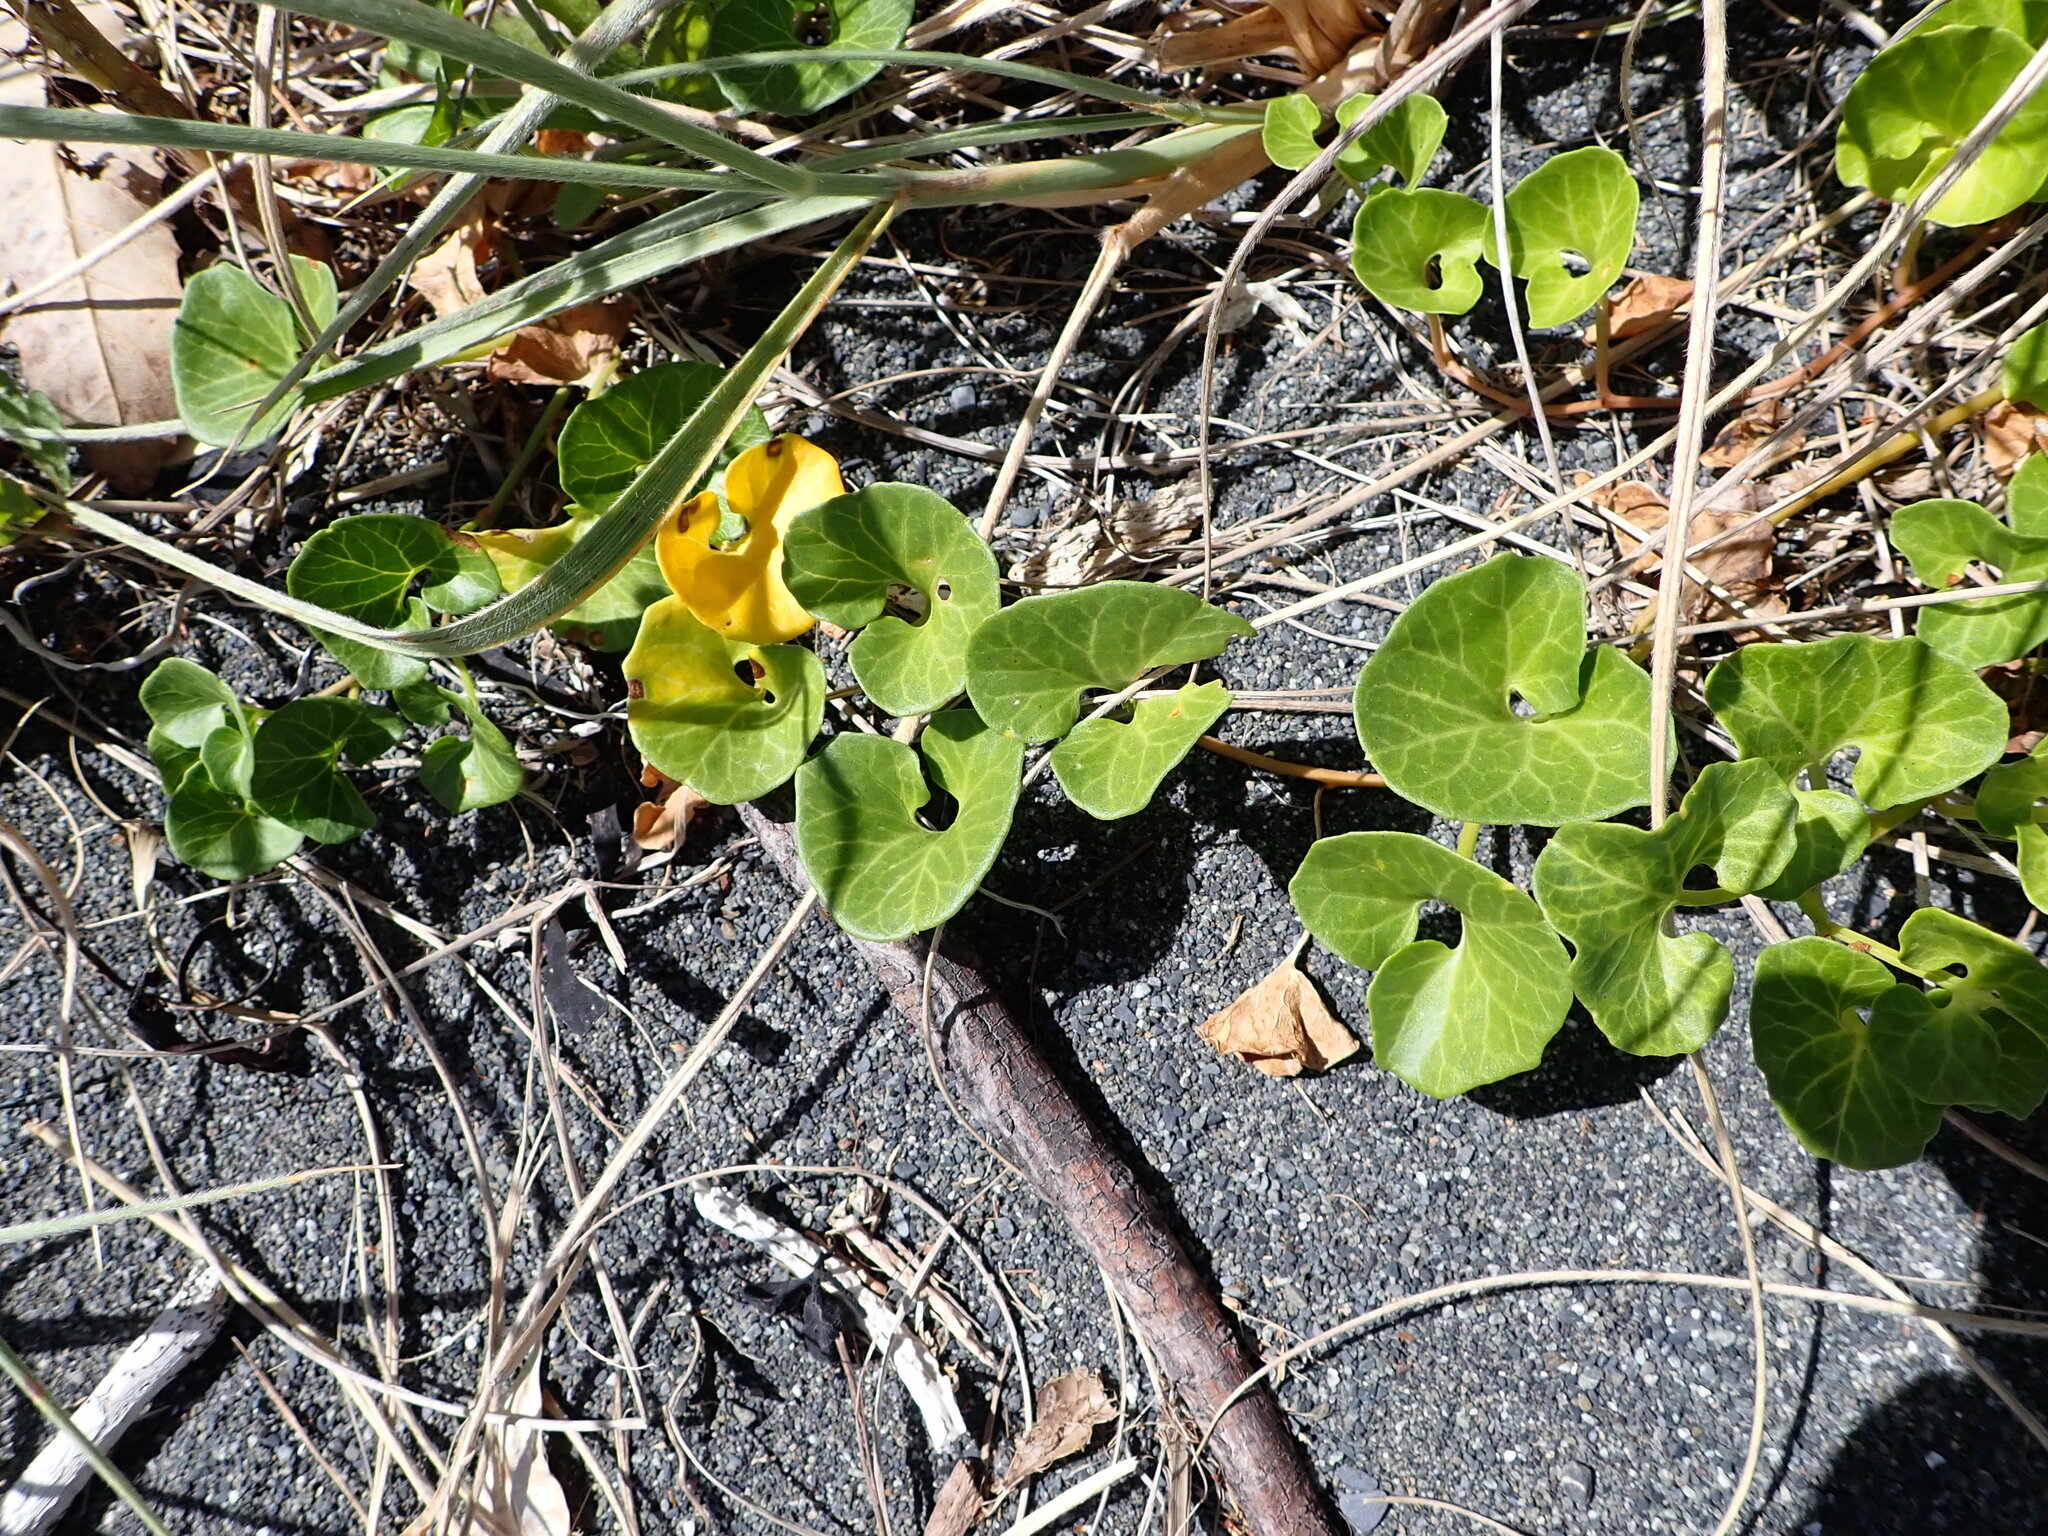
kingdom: Plantae
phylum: Tracheophyta
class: Magnoliopsida
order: Solanales
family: Convolvulaceae
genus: Calystegia
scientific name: Calystegia soldanella
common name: Sea bindweed
